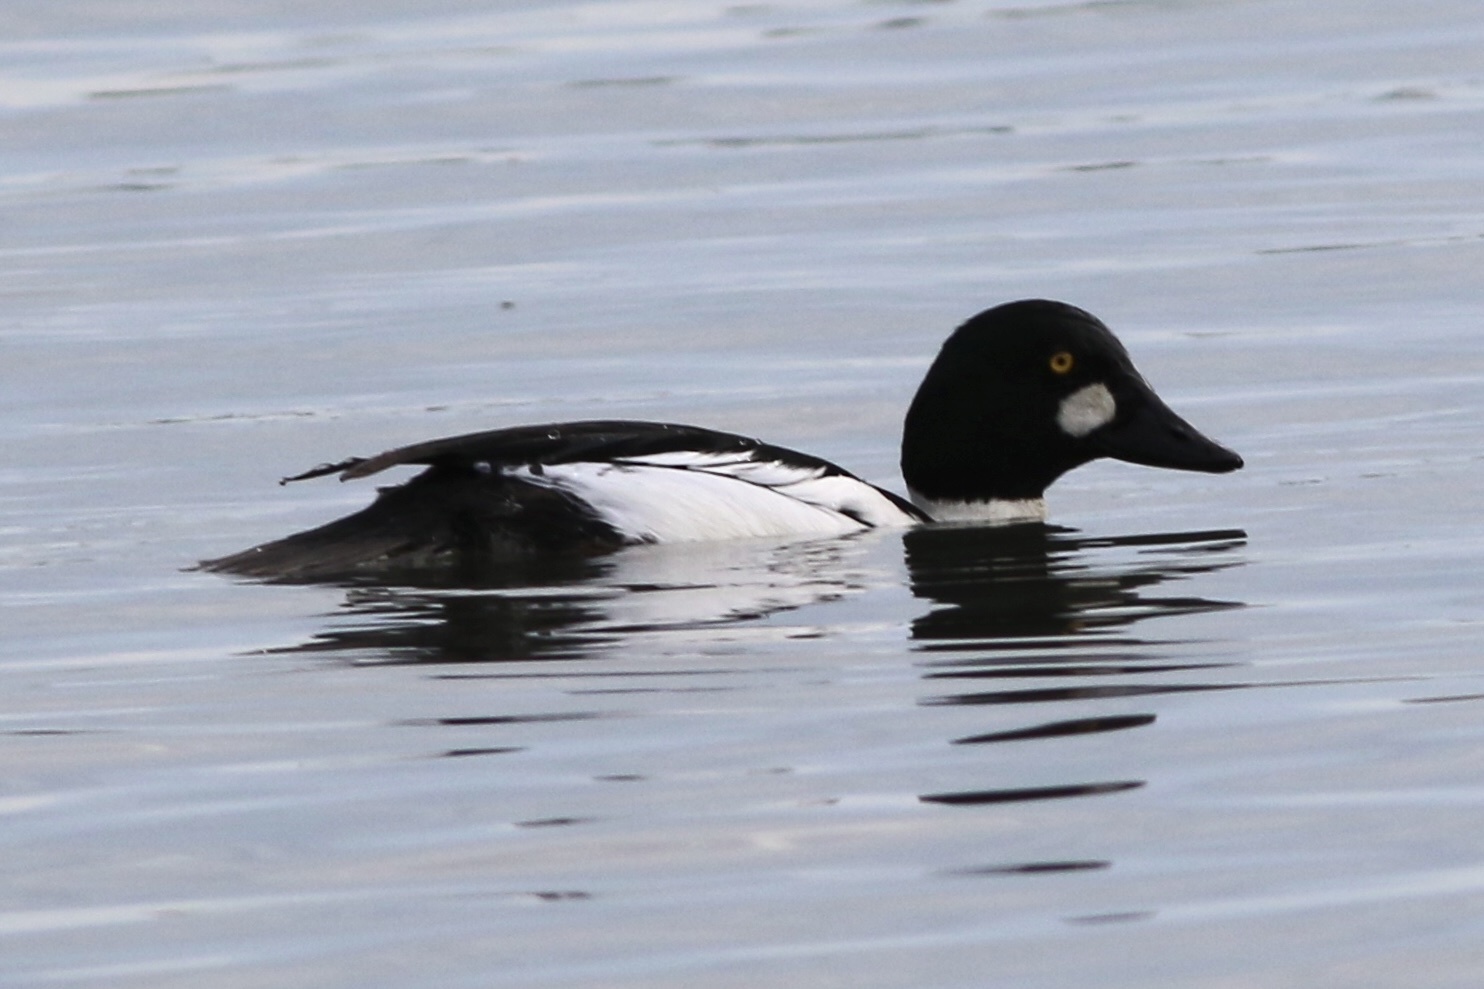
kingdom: Animalia
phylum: Chordata
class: Aves
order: Anseriformes
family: Anatidae
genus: Bucephala
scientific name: Bucephala clangula
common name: Common goldeneye
